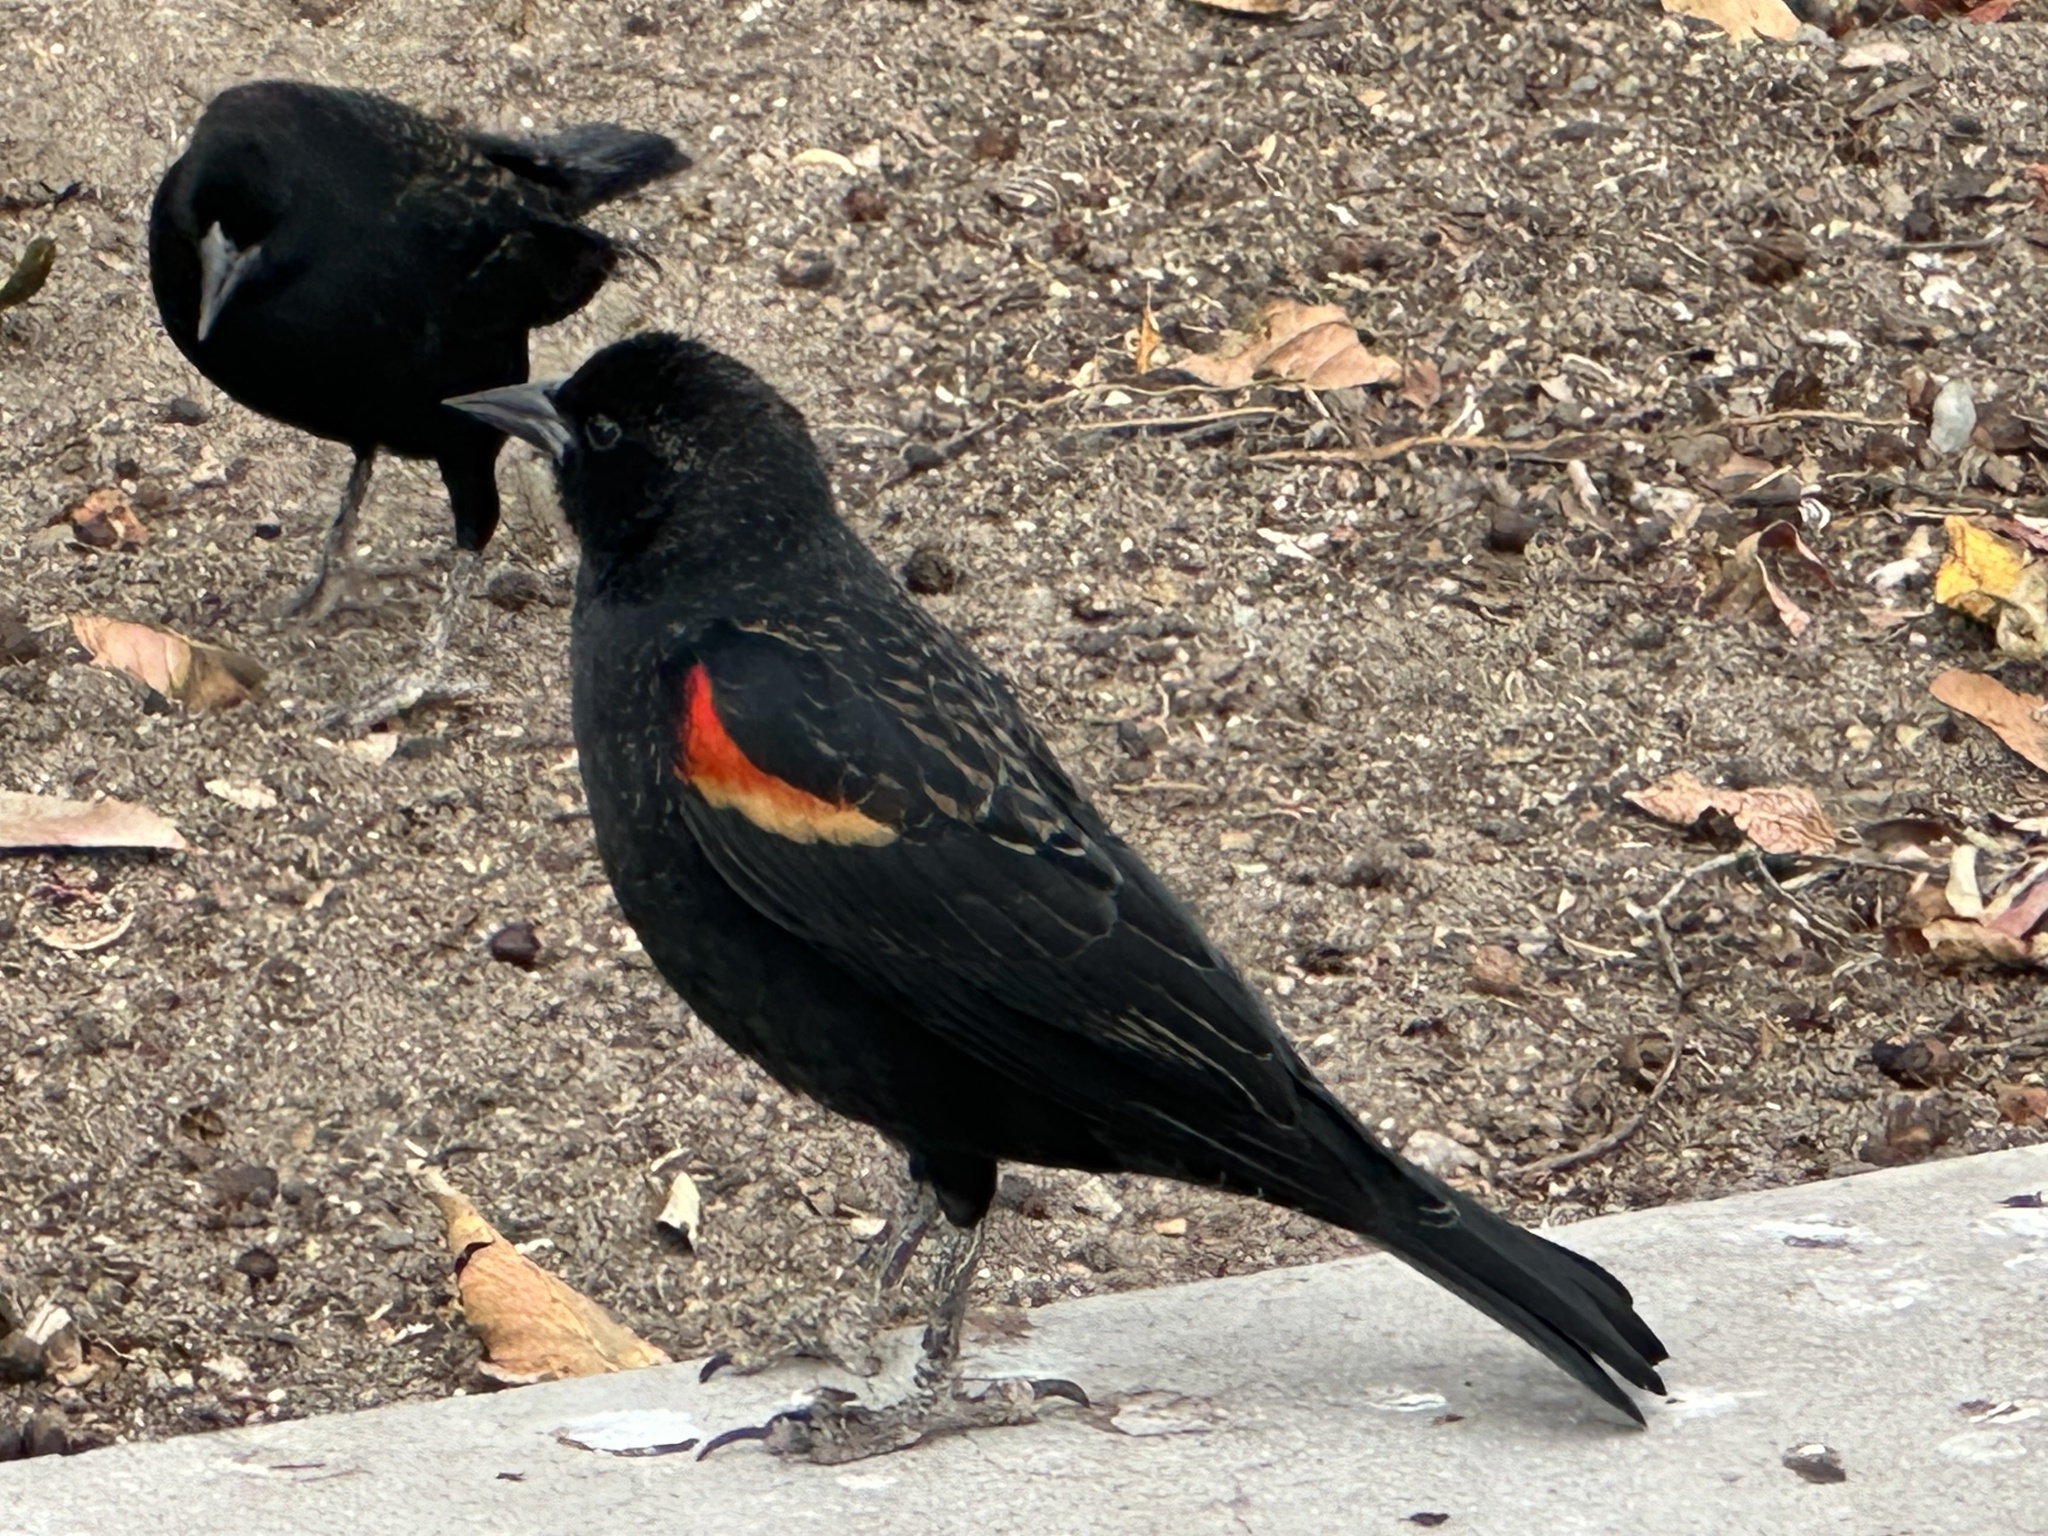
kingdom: Animalia
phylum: Chordata
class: Aves
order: Passeriformes
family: Icteridae
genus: Agelaius
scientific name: Agelaius phoeniceus
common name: Red-winged blackbird
